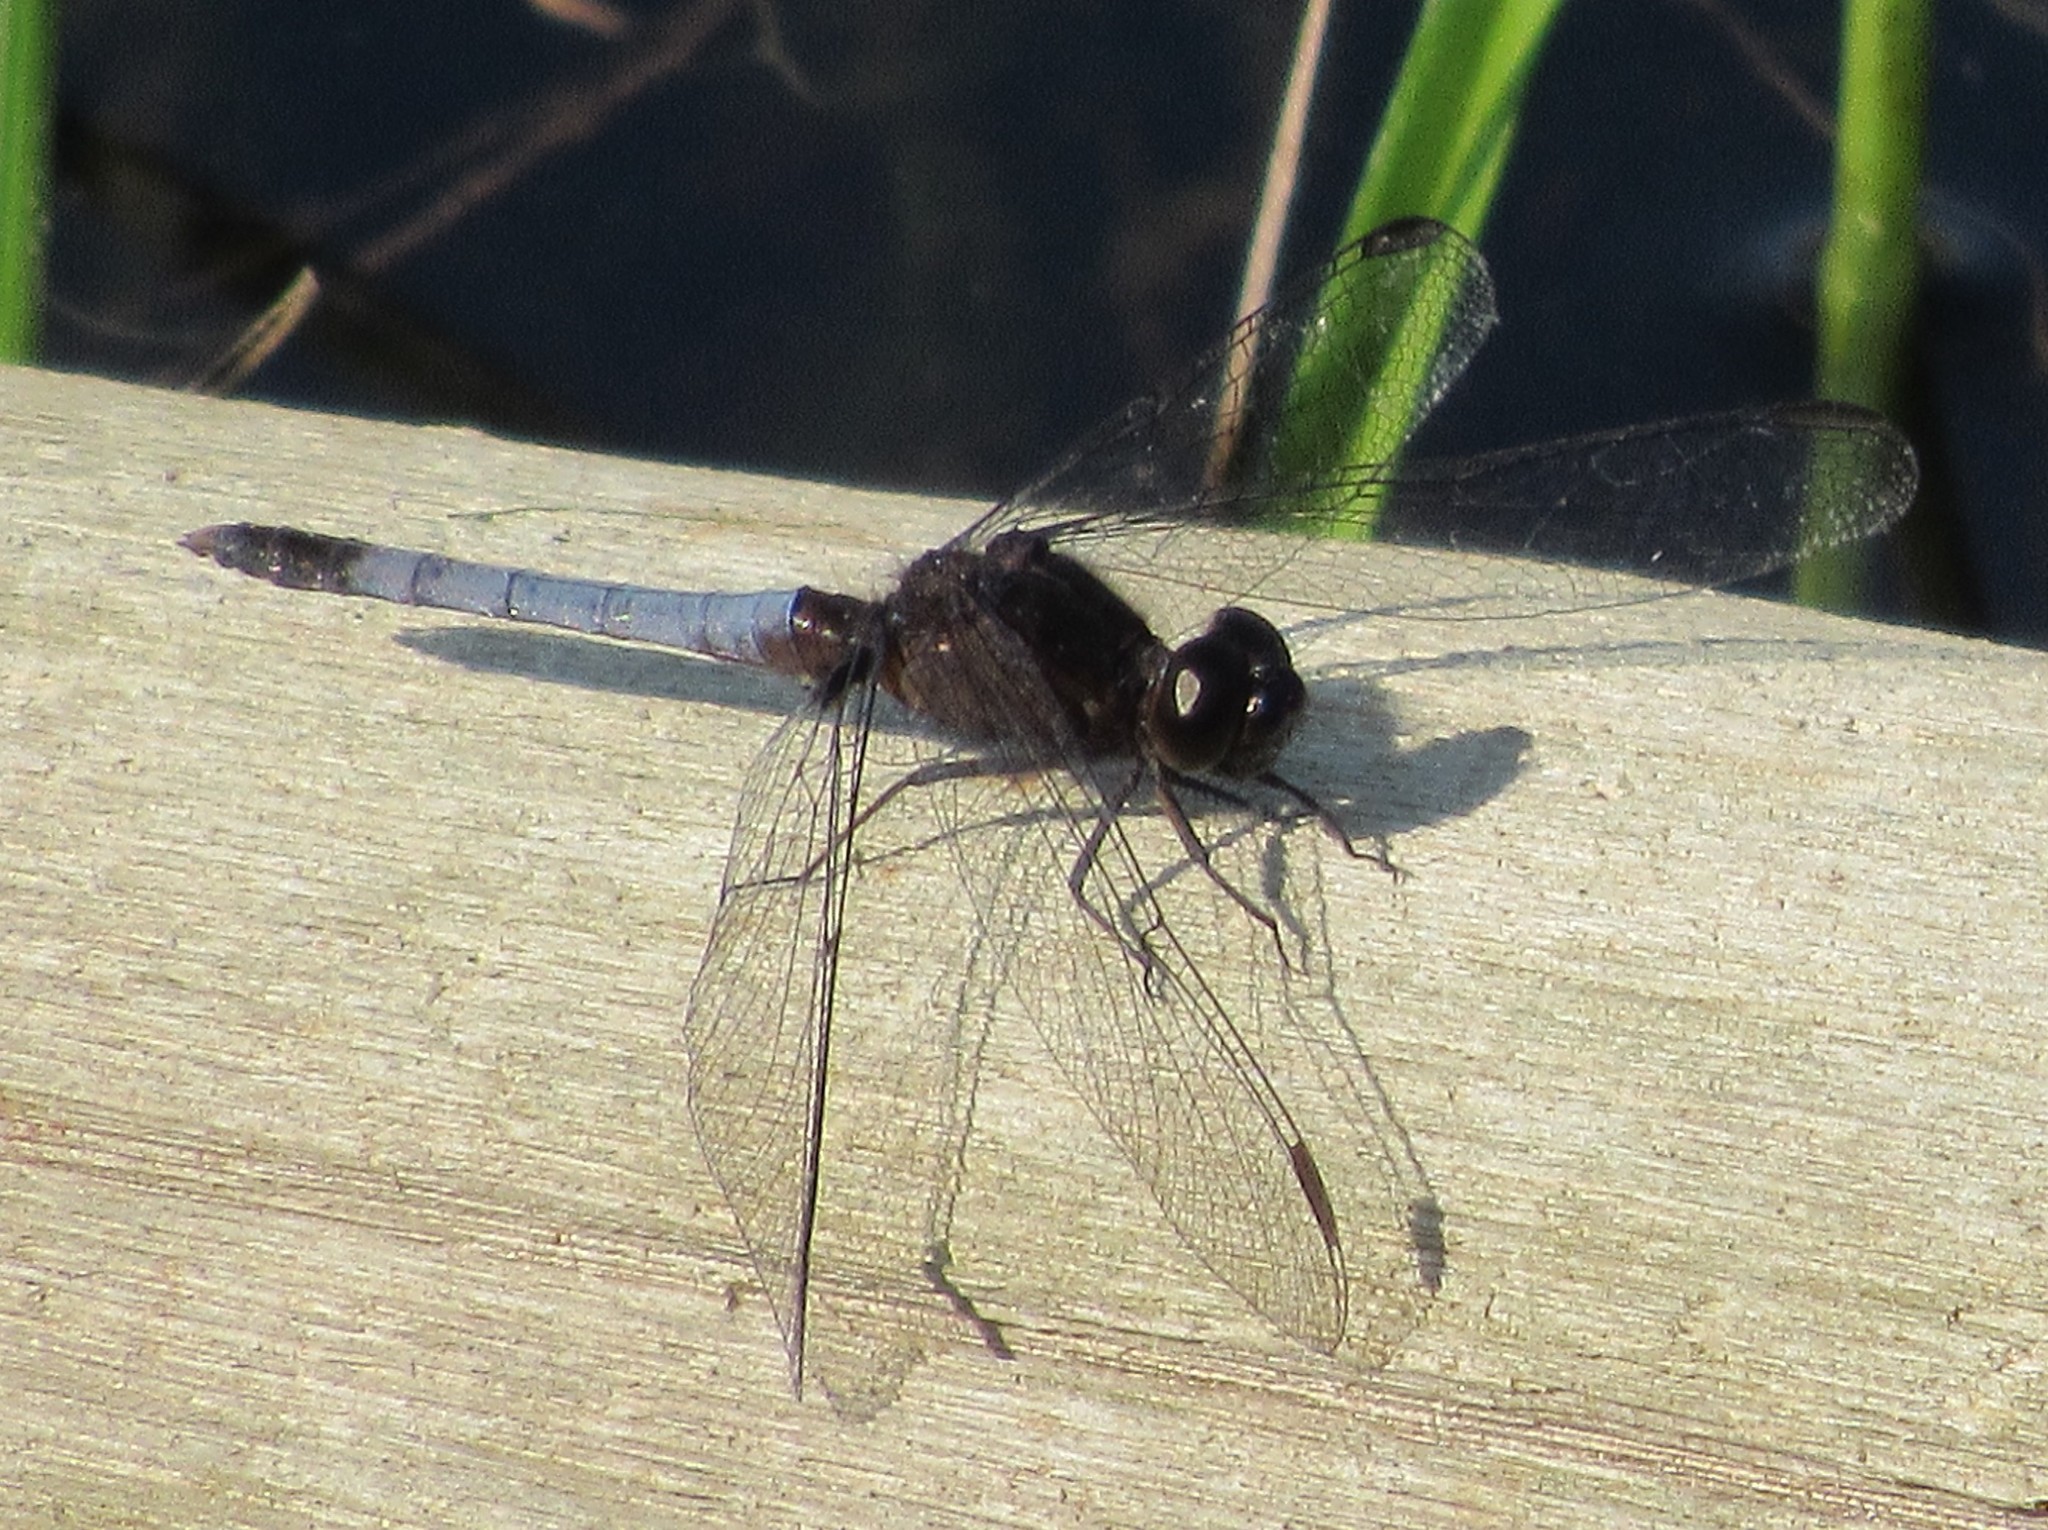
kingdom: Animalia
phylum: Arthropoda
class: Insecta
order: Odonata
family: Libellulidae
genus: Erythrodiplax
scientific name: Erythrodiplax fusca
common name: Red-faced dragonlet
